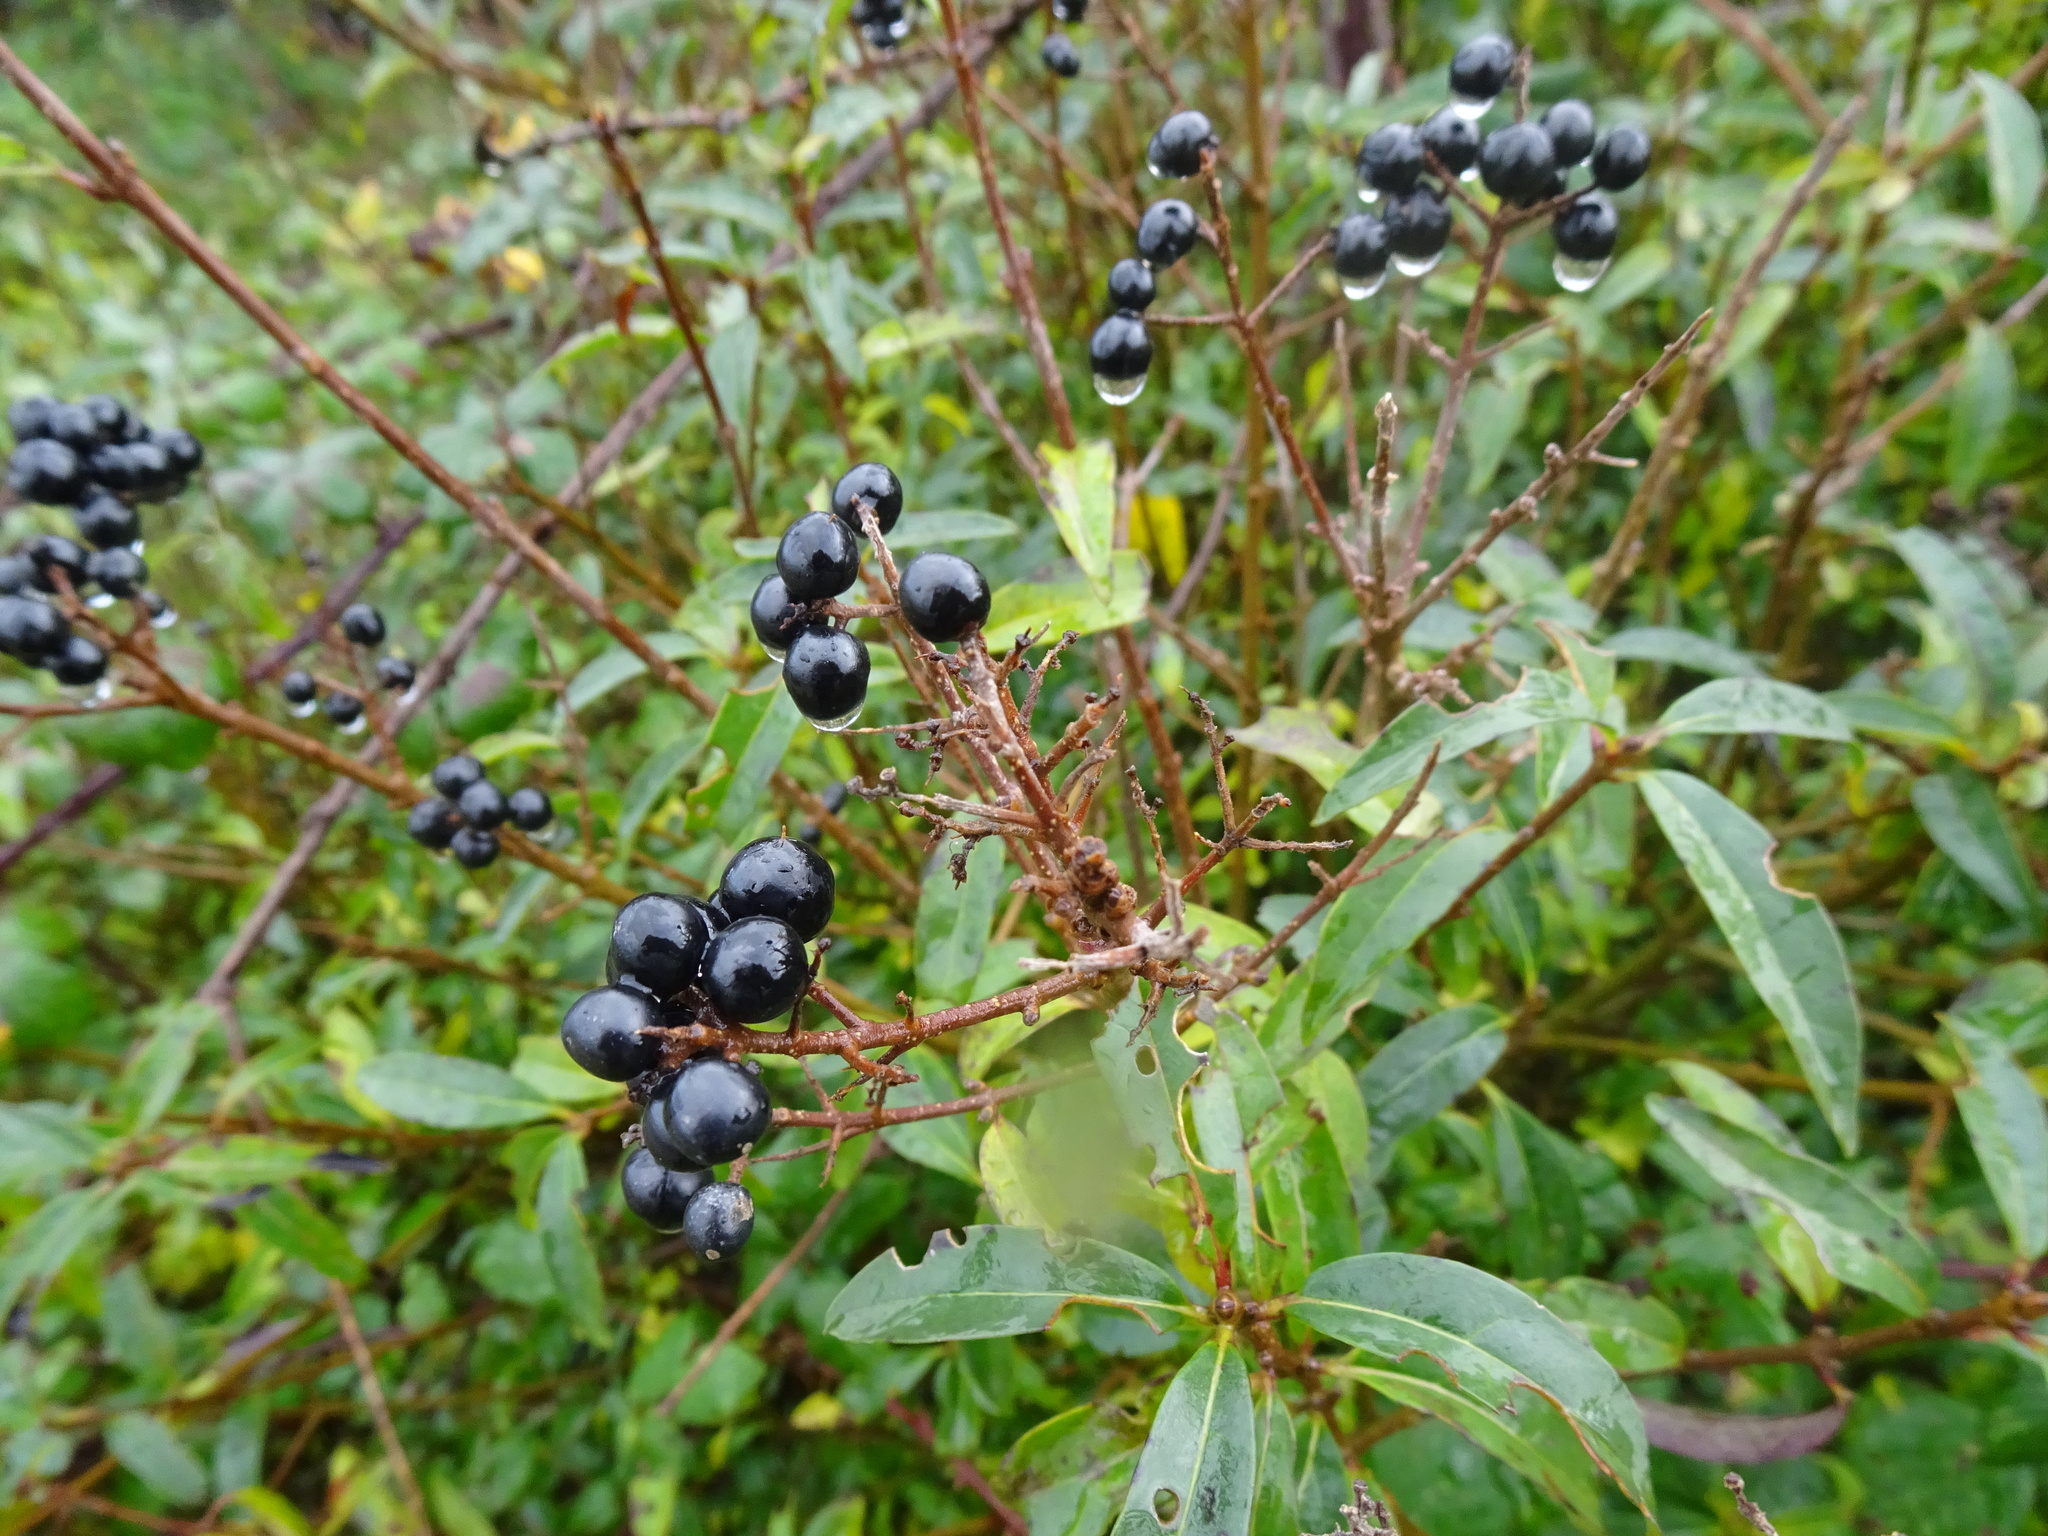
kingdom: Plantae
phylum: Tracheophyta
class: Magnoliopsida
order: Lamiales
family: Oleaceae
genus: Ligustrum
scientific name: Ligustrum vulgare
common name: Wild privet
